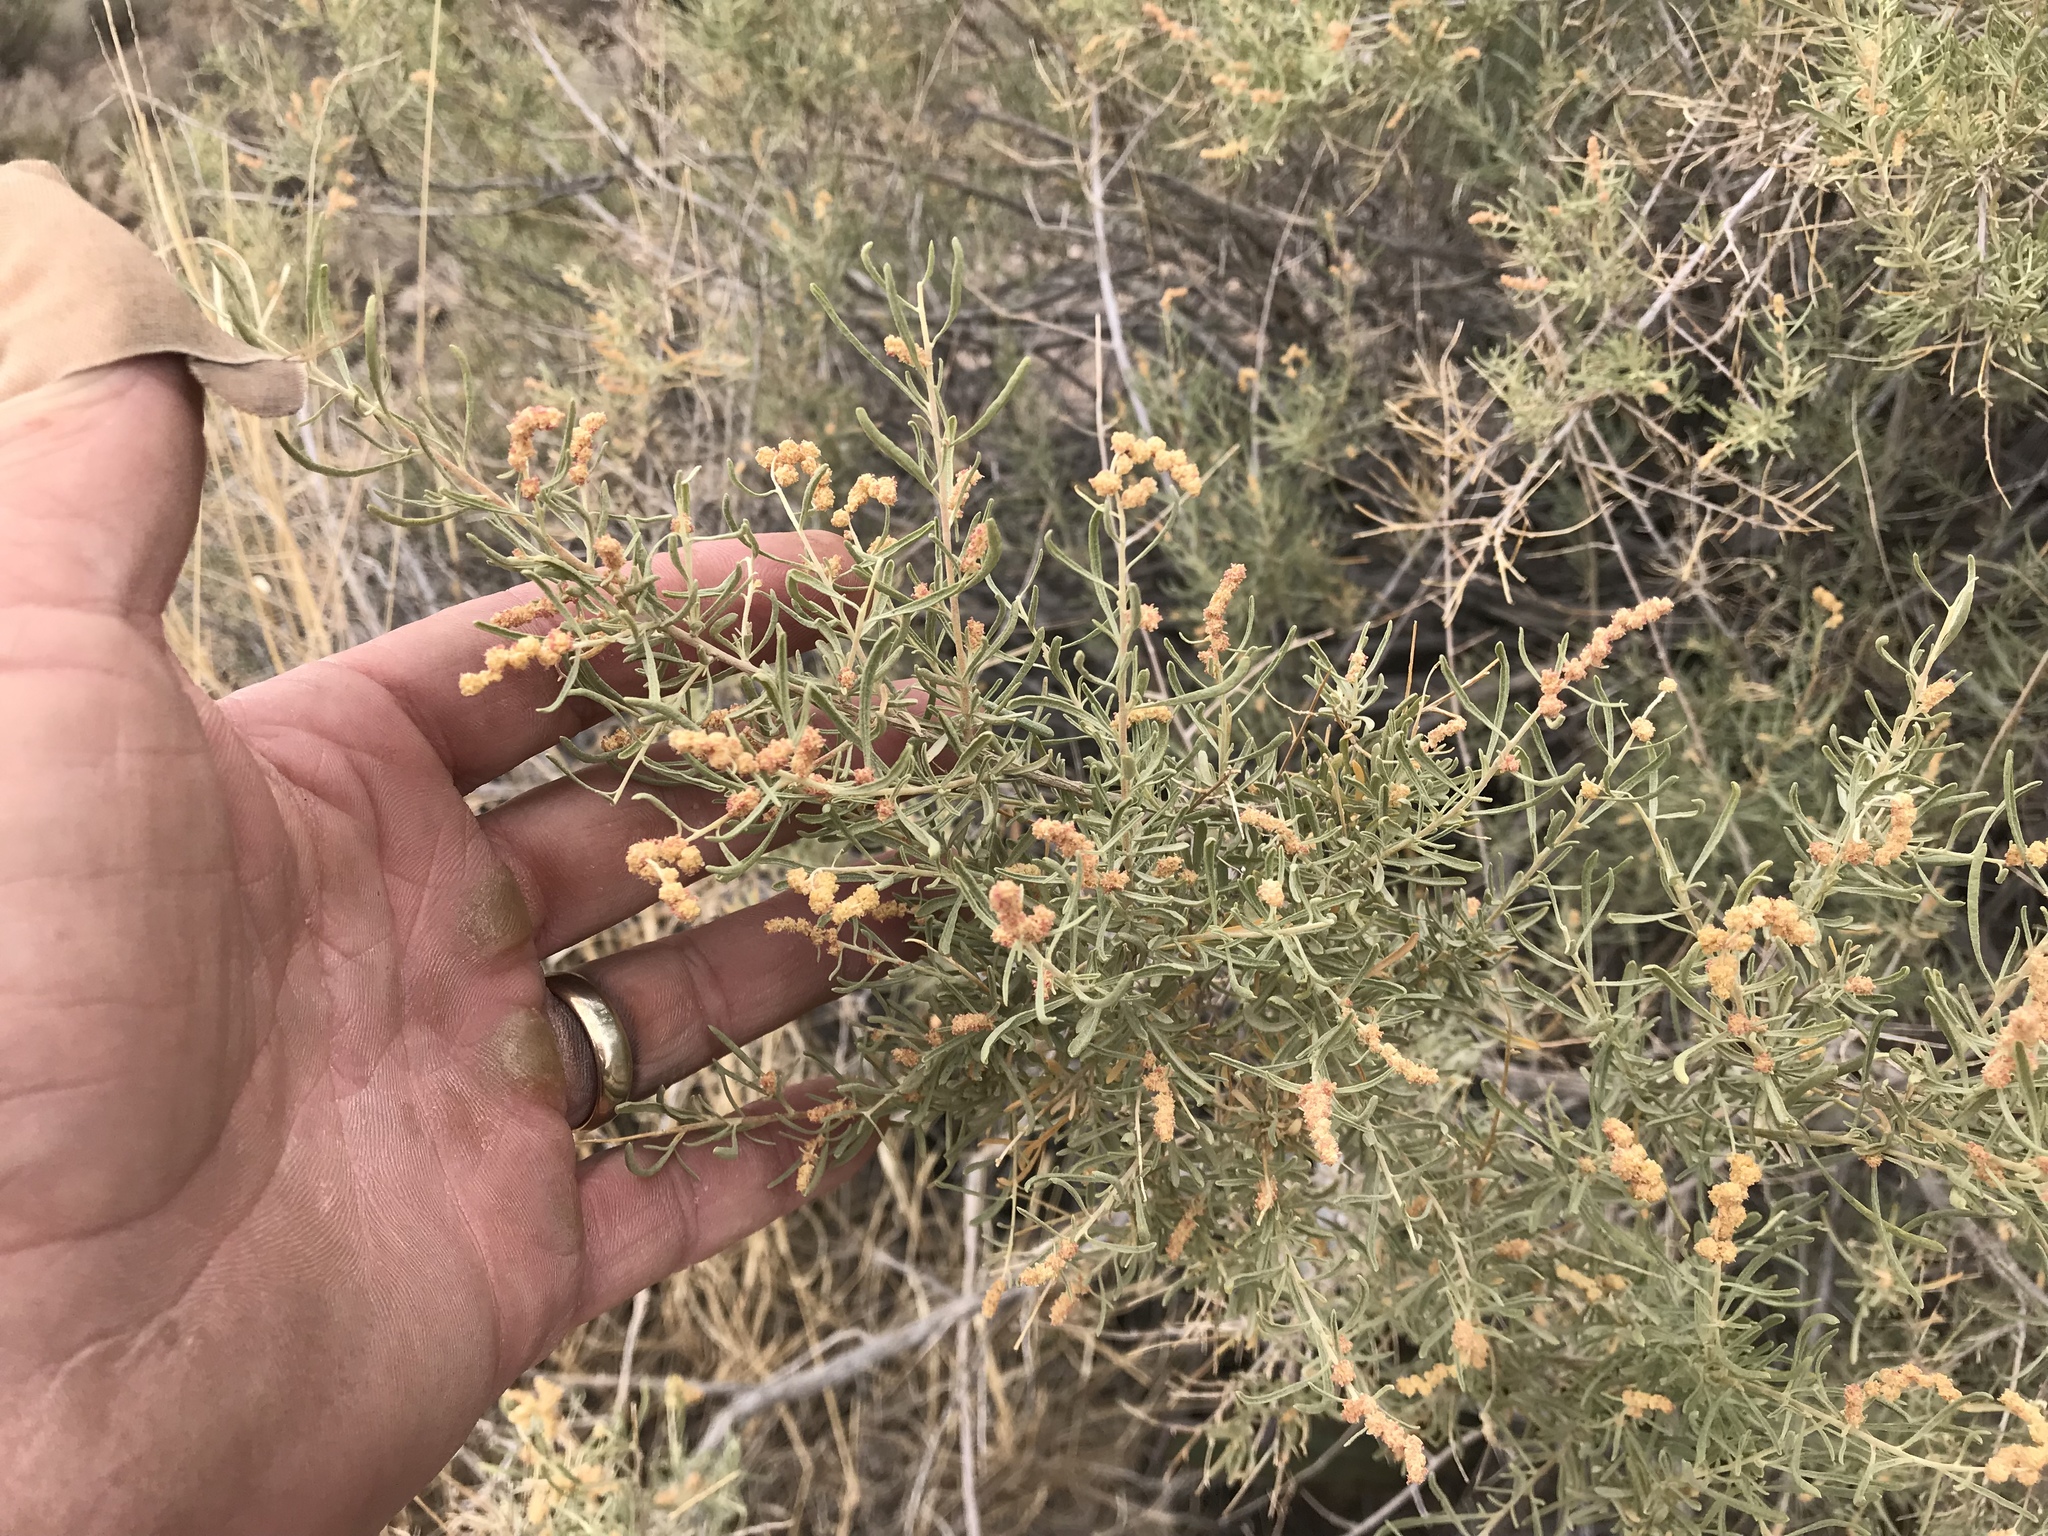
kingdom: Plantae
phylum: Tracheophyta
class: Magnoliopsida
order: Caryophyllales
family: Amaranthaceae
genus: Atriplex
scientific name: Atriplex linearis
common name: Slender-leaf saltbush
